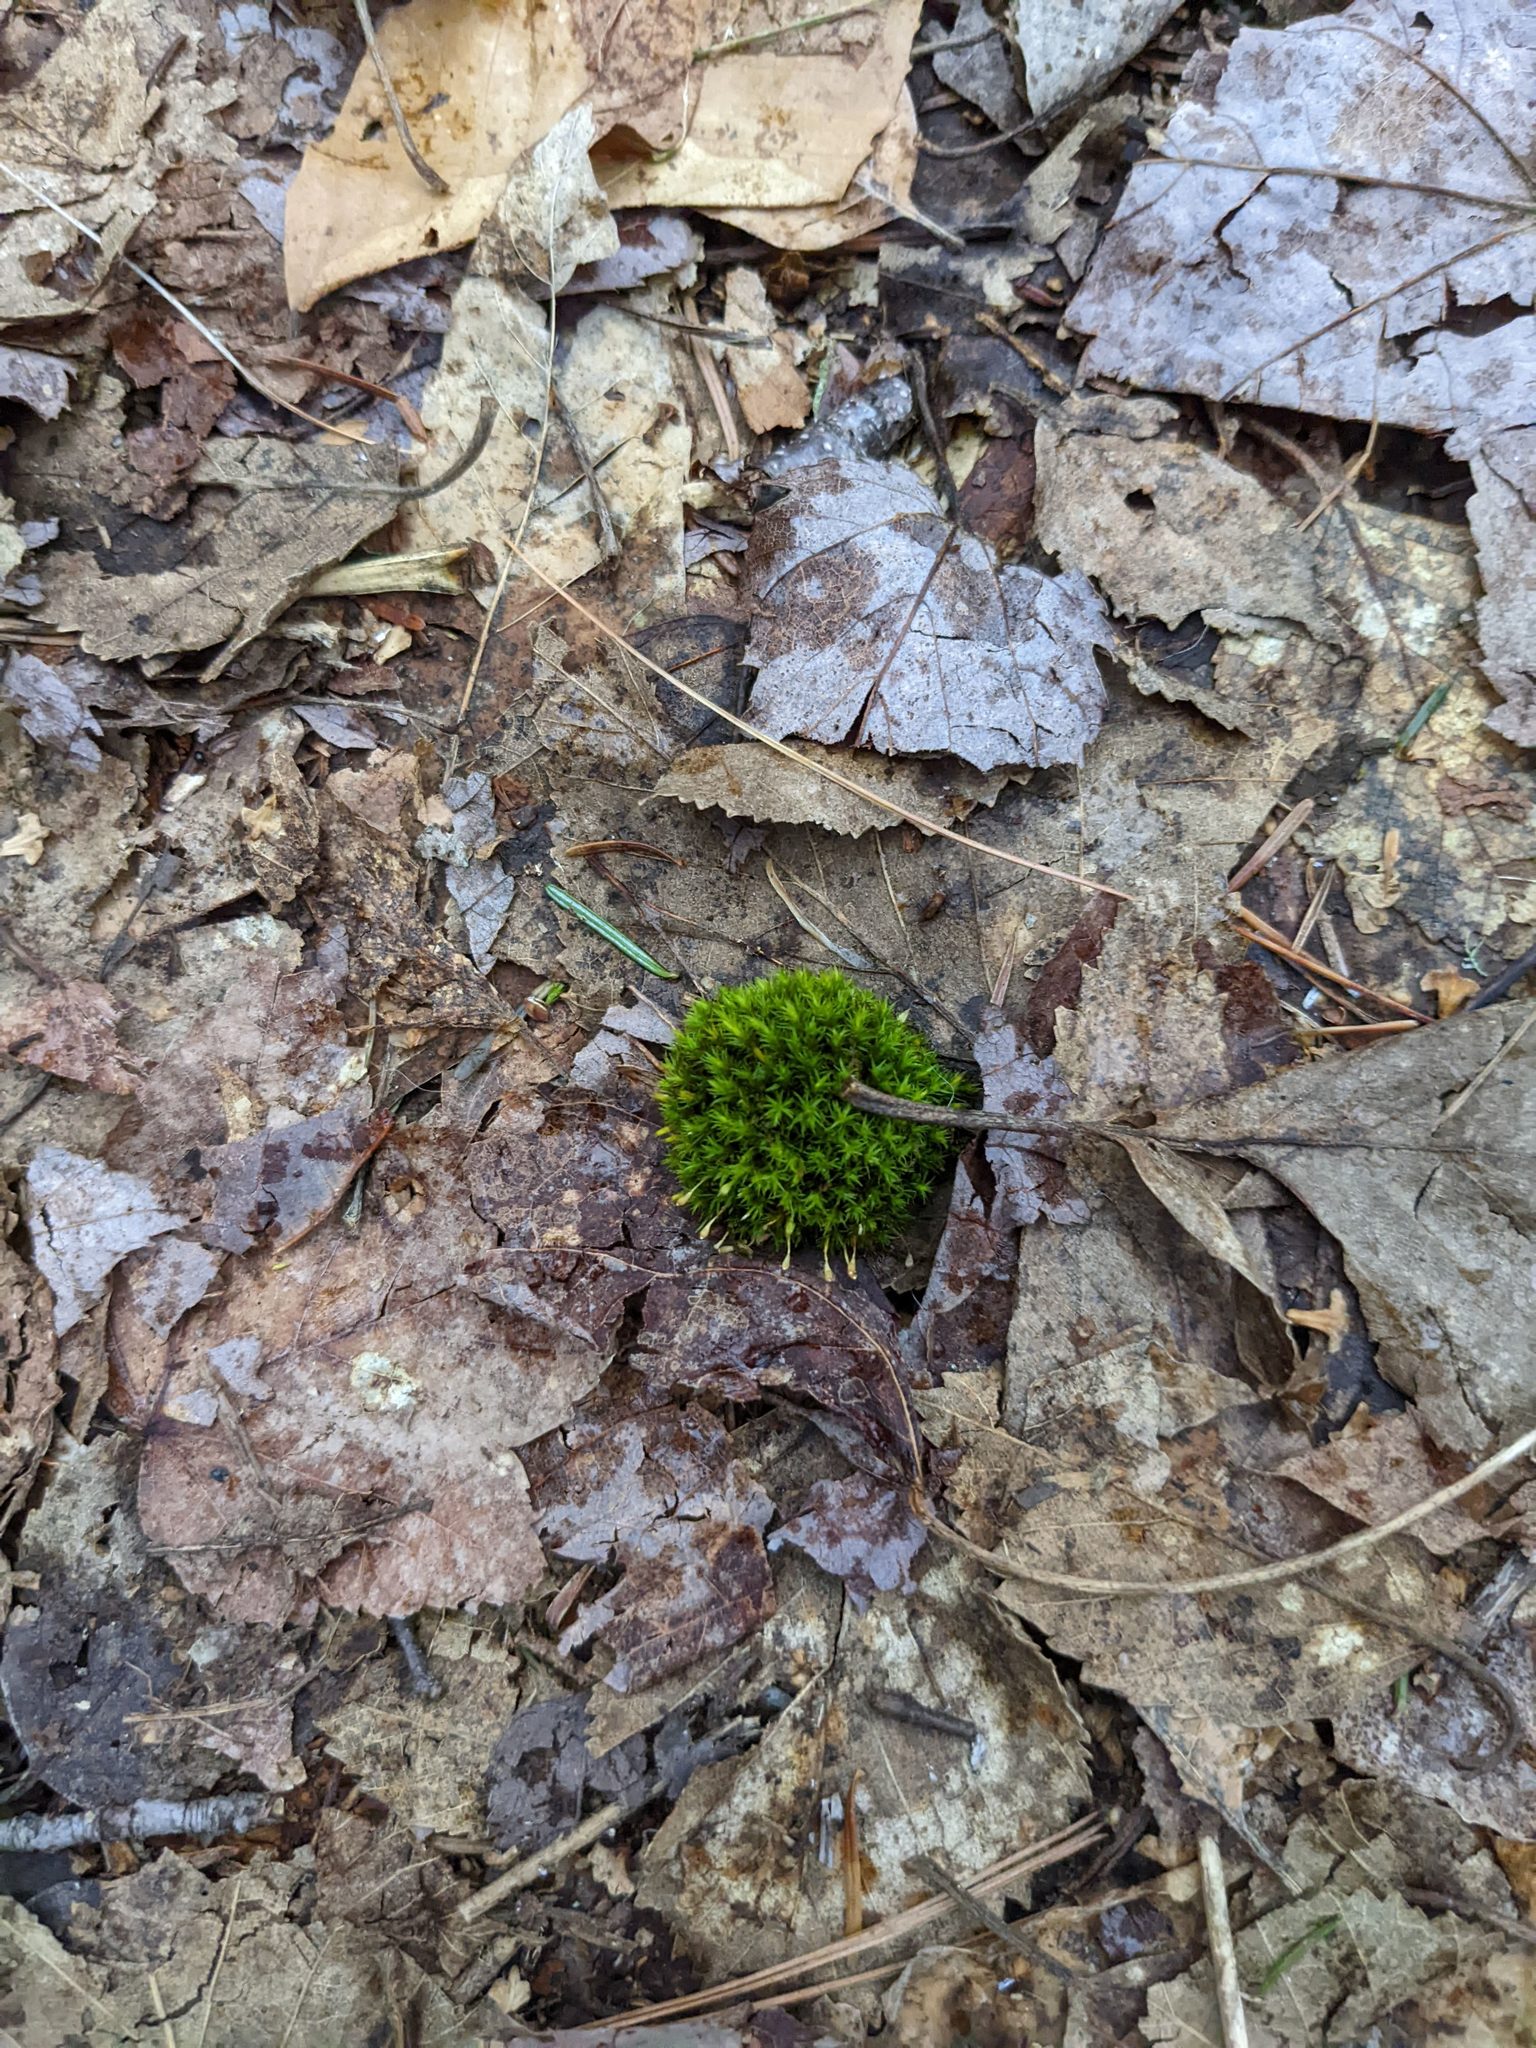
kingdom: Plantae
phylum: Bryophyta
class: Bryopsida
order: Orthotrichales
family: Orthotrichaceae
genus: Ulota
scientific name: Ulota crispa
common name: Crisped pincushion moss
